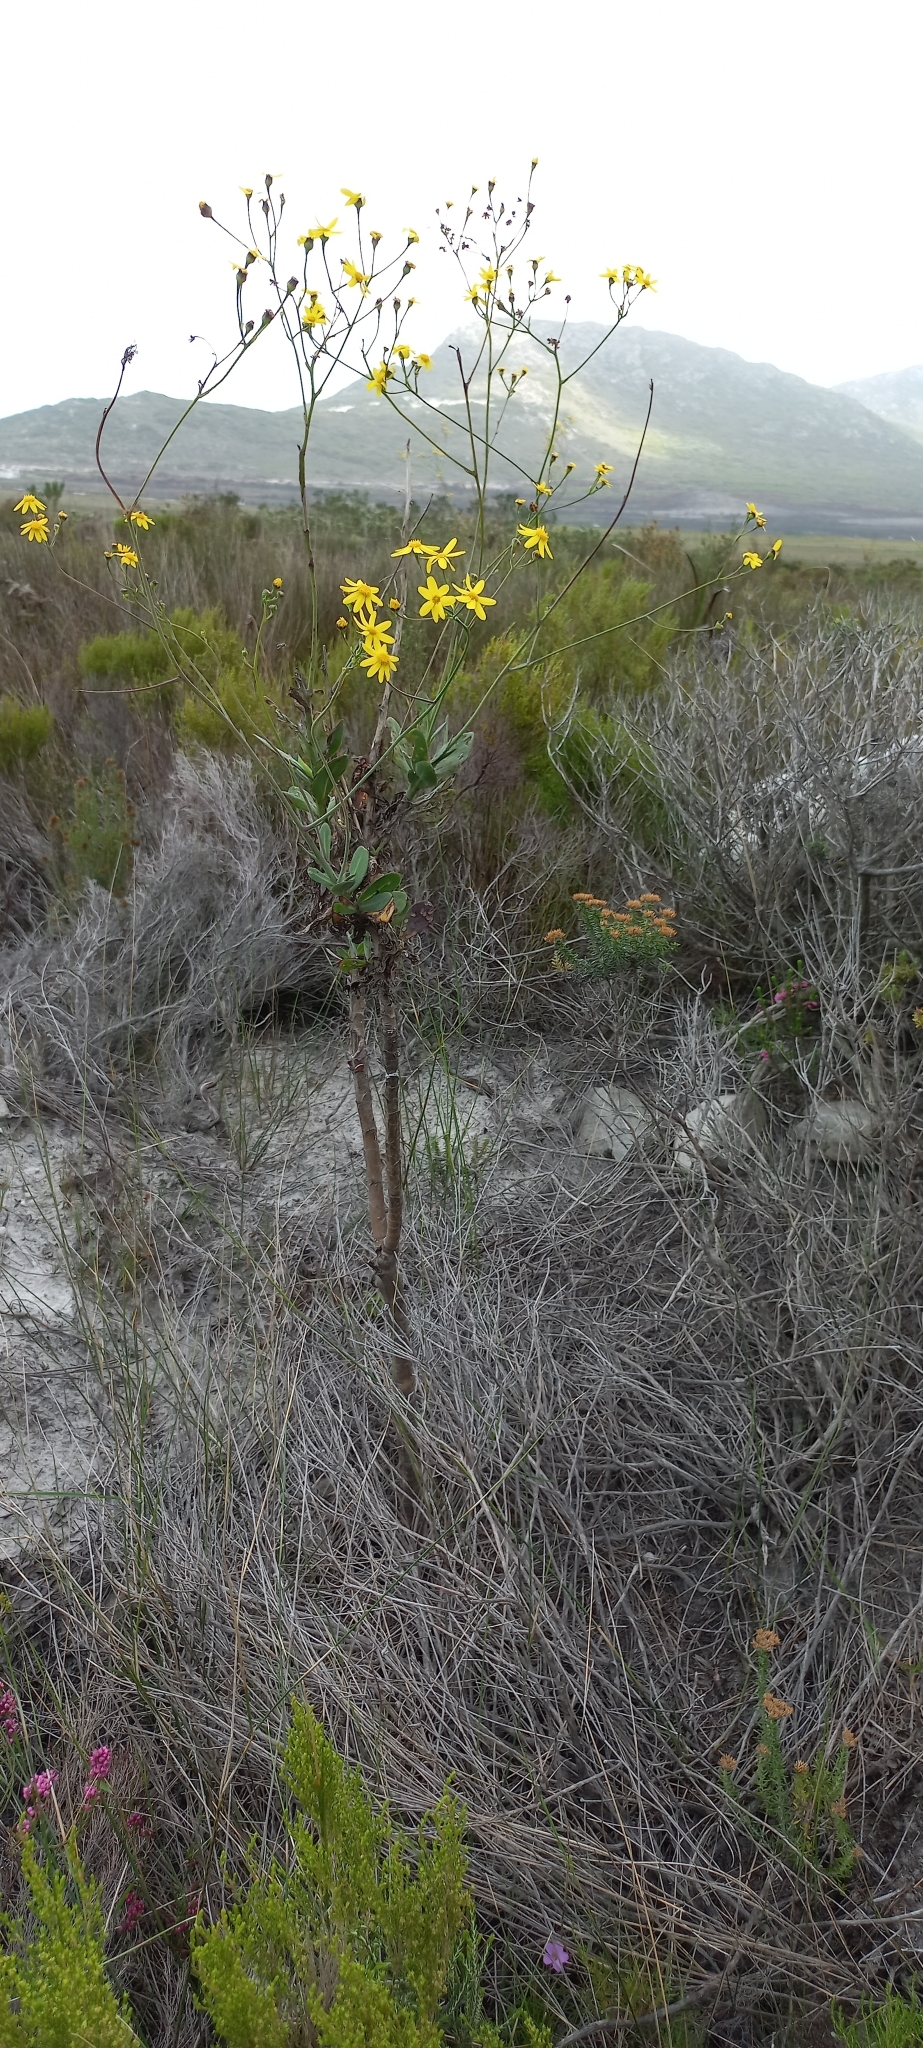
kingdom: Plantae
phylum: Tracheophyta
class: Magnoliopsida
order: Asterales
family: Asteraceae
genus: Othonna
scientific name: Othonna quinquedentata
